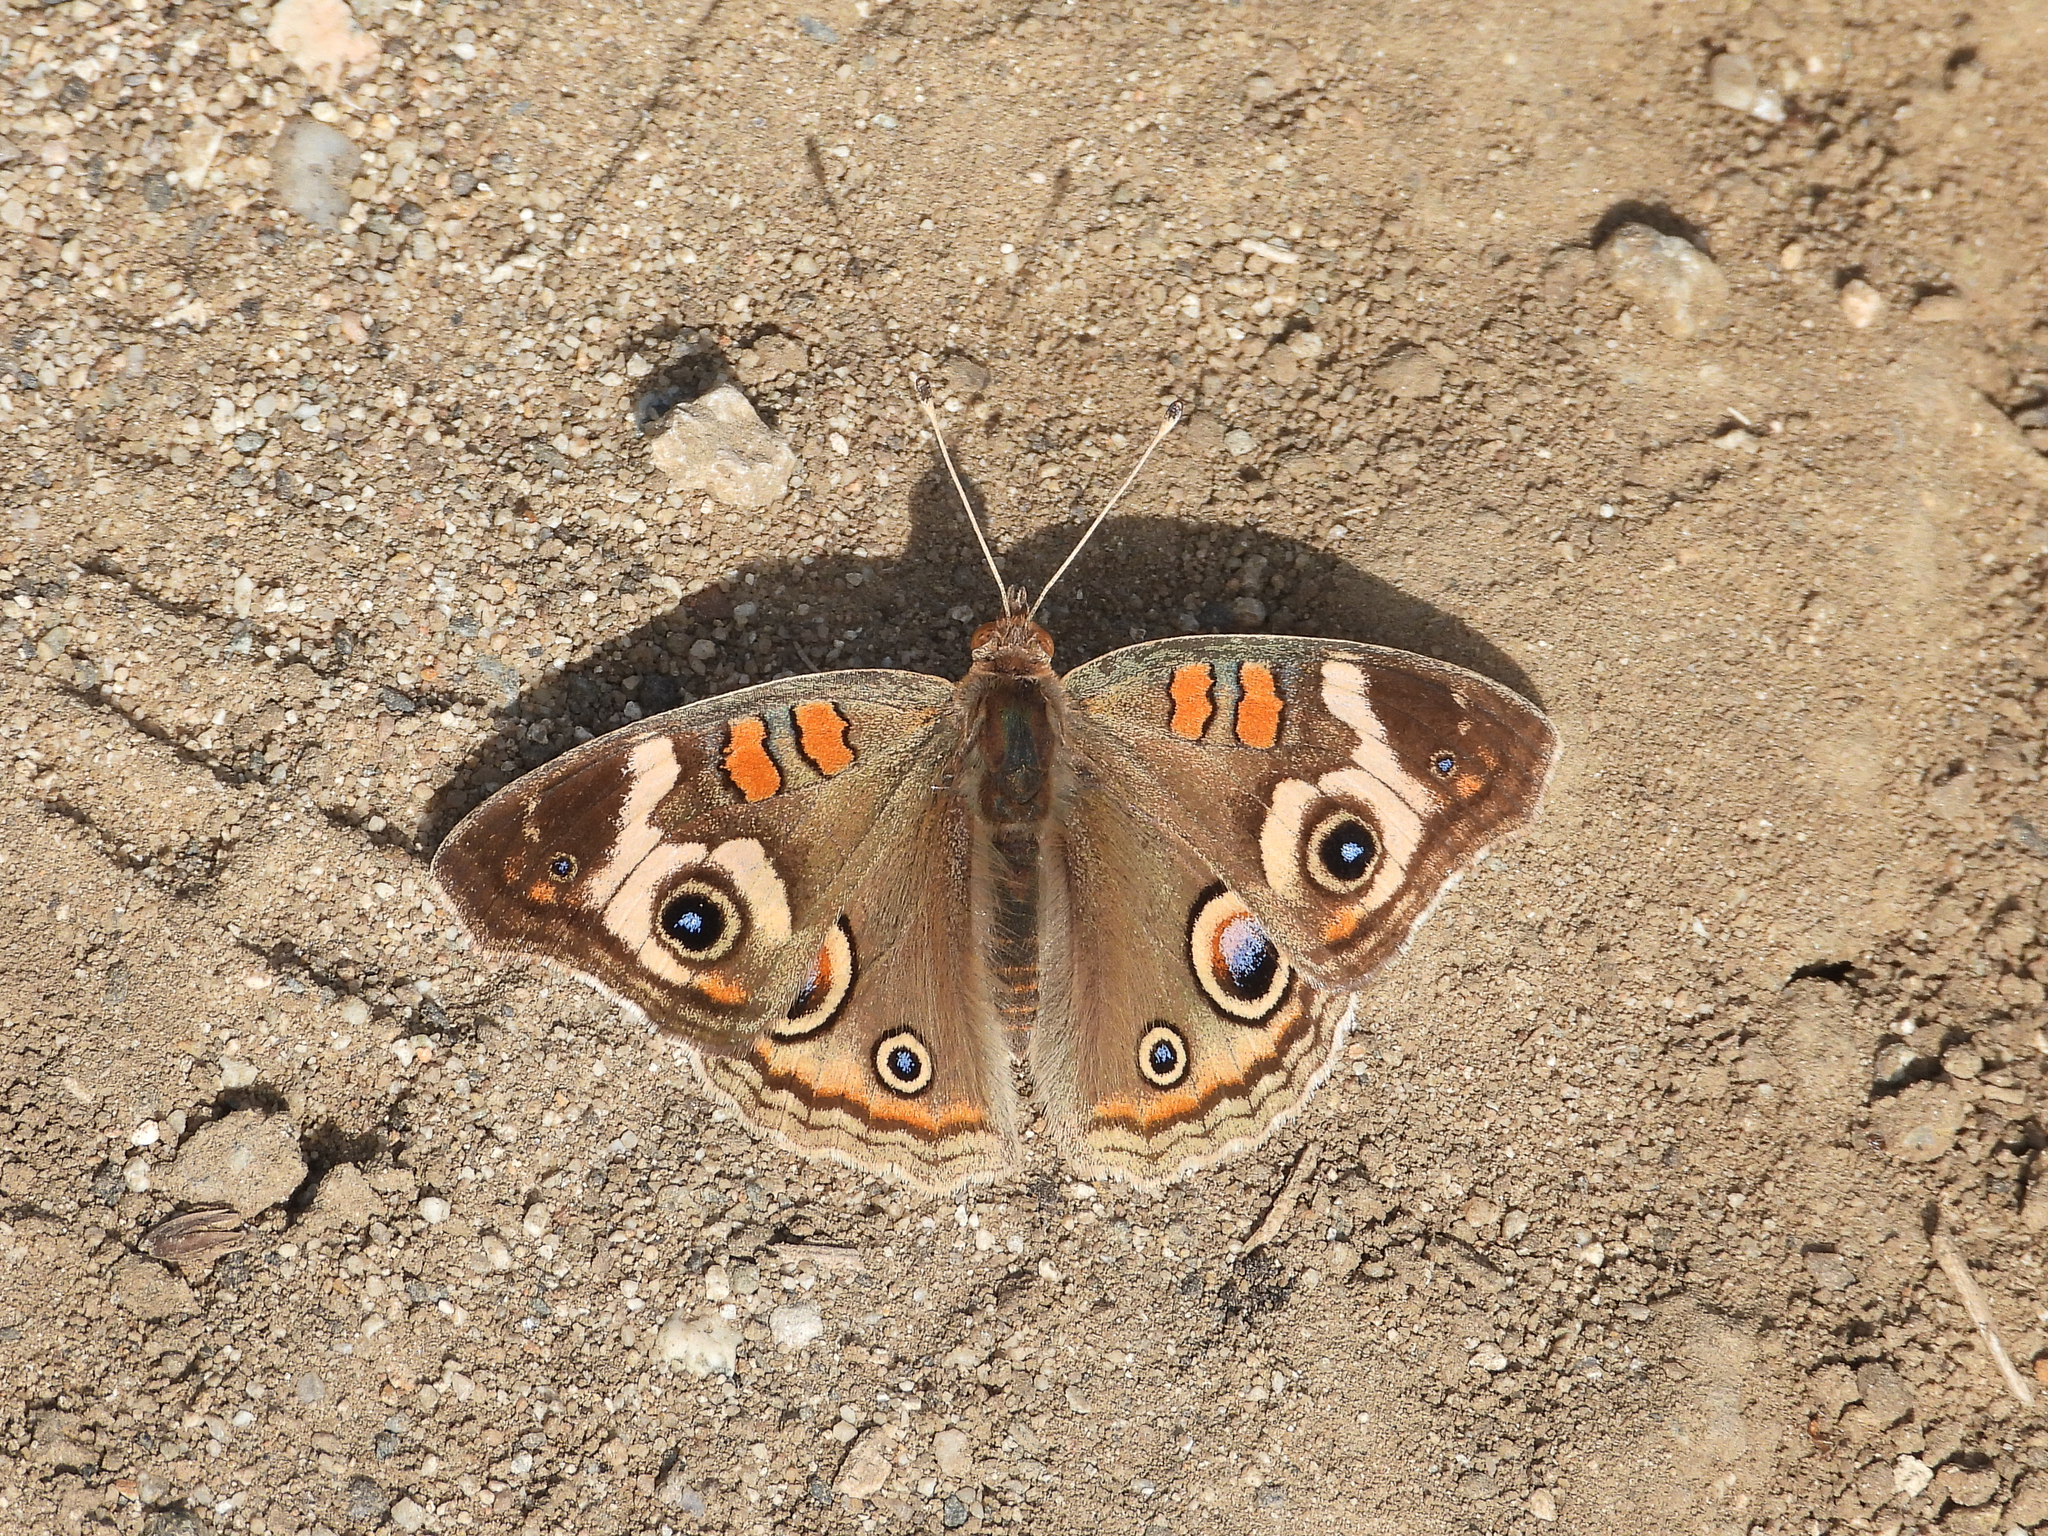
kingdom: Animalia
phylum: Arthropoda
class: Insecta
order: Lepidoptera
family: Nymphalidae
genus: Junonia
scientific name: Junonia grisea
